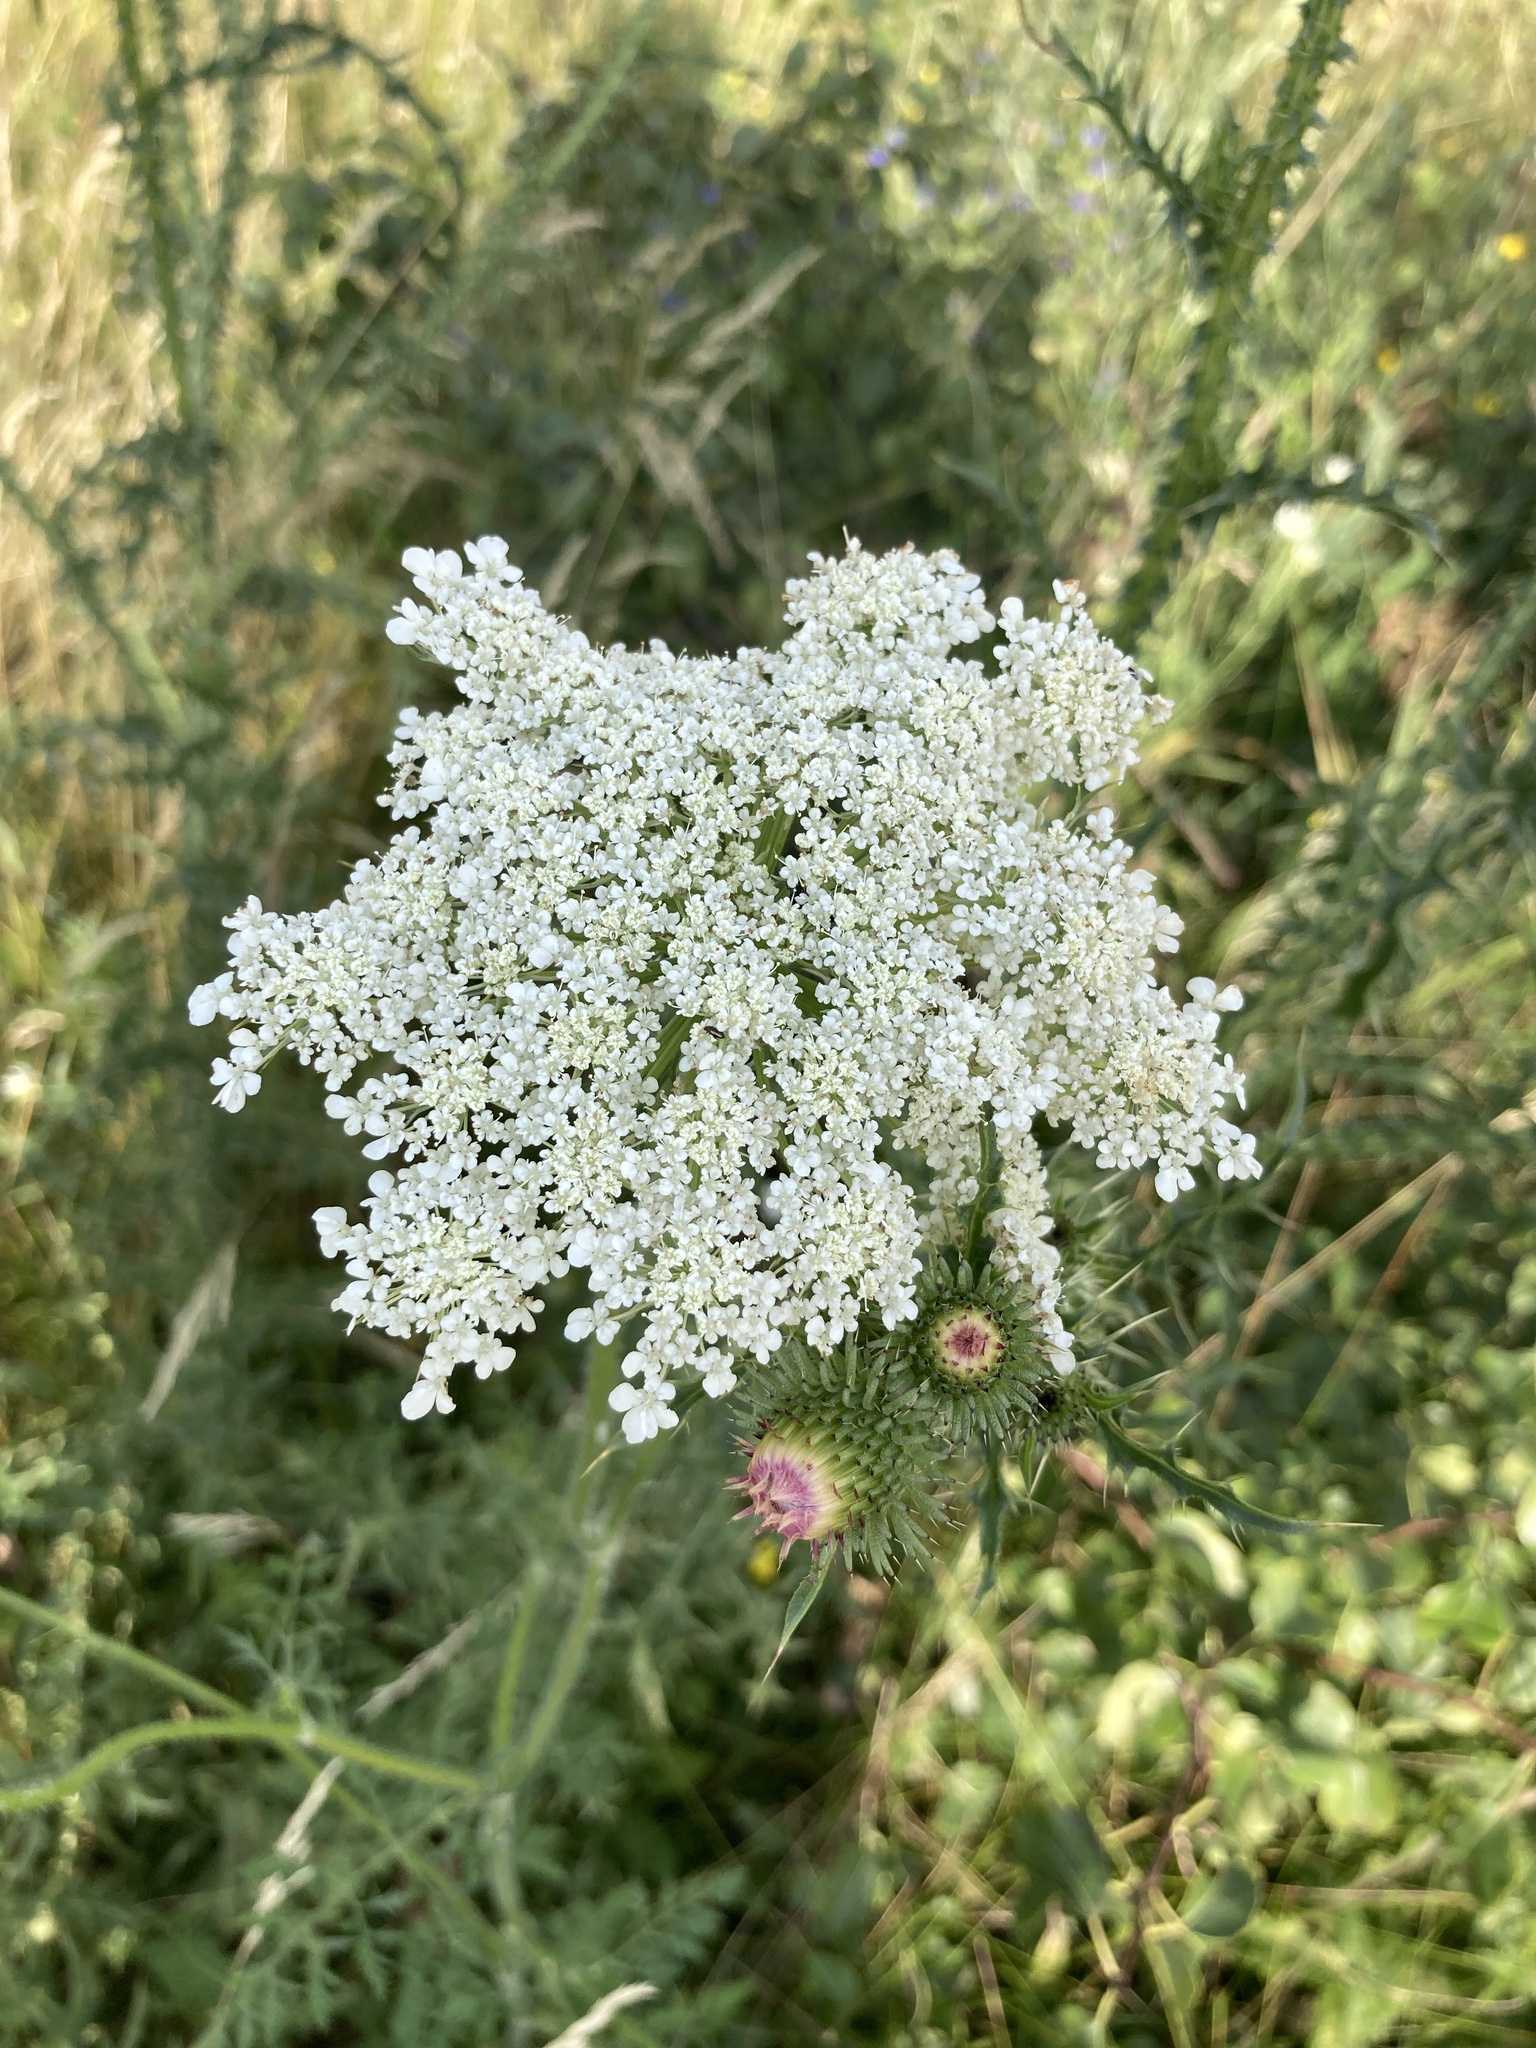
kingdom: Plantae
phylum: Tracheophyta
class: Magnoliopsida
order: Apiales
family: Apiaceae
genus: Daucus
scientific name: Daucus carota
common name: Wild carrot
